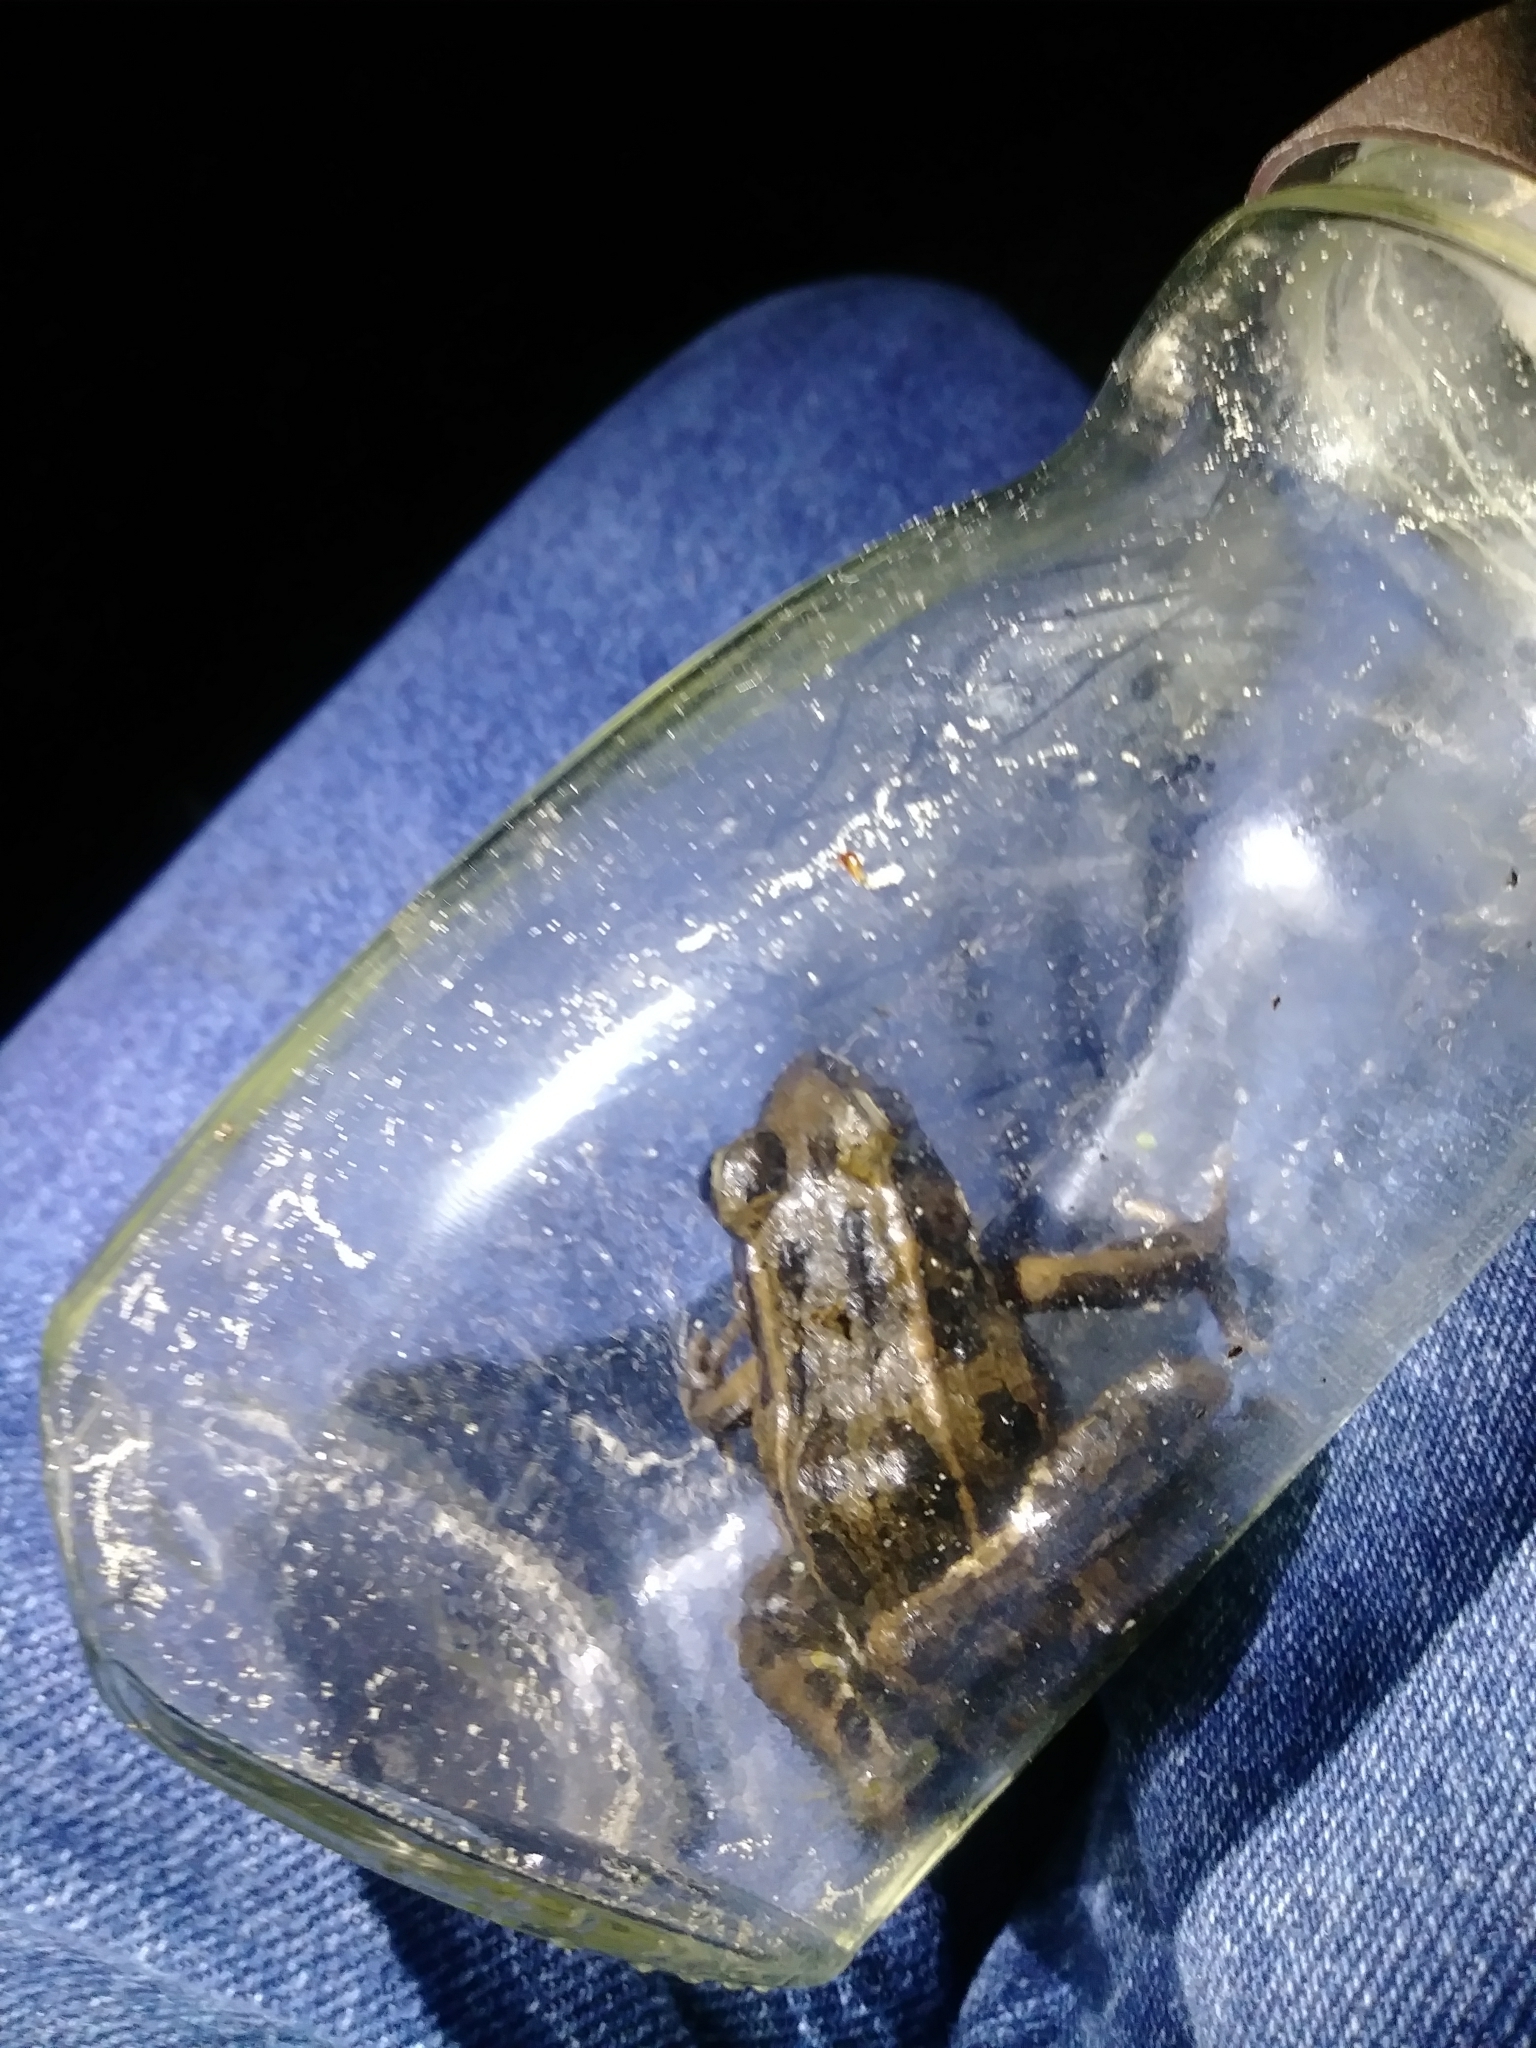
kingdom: Animalia
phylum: Chordata
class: Amphibia
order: Anura
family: Ranidae
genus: Lithobates
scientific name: Lithobates sphenocephalus
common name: Southern leopard frog
